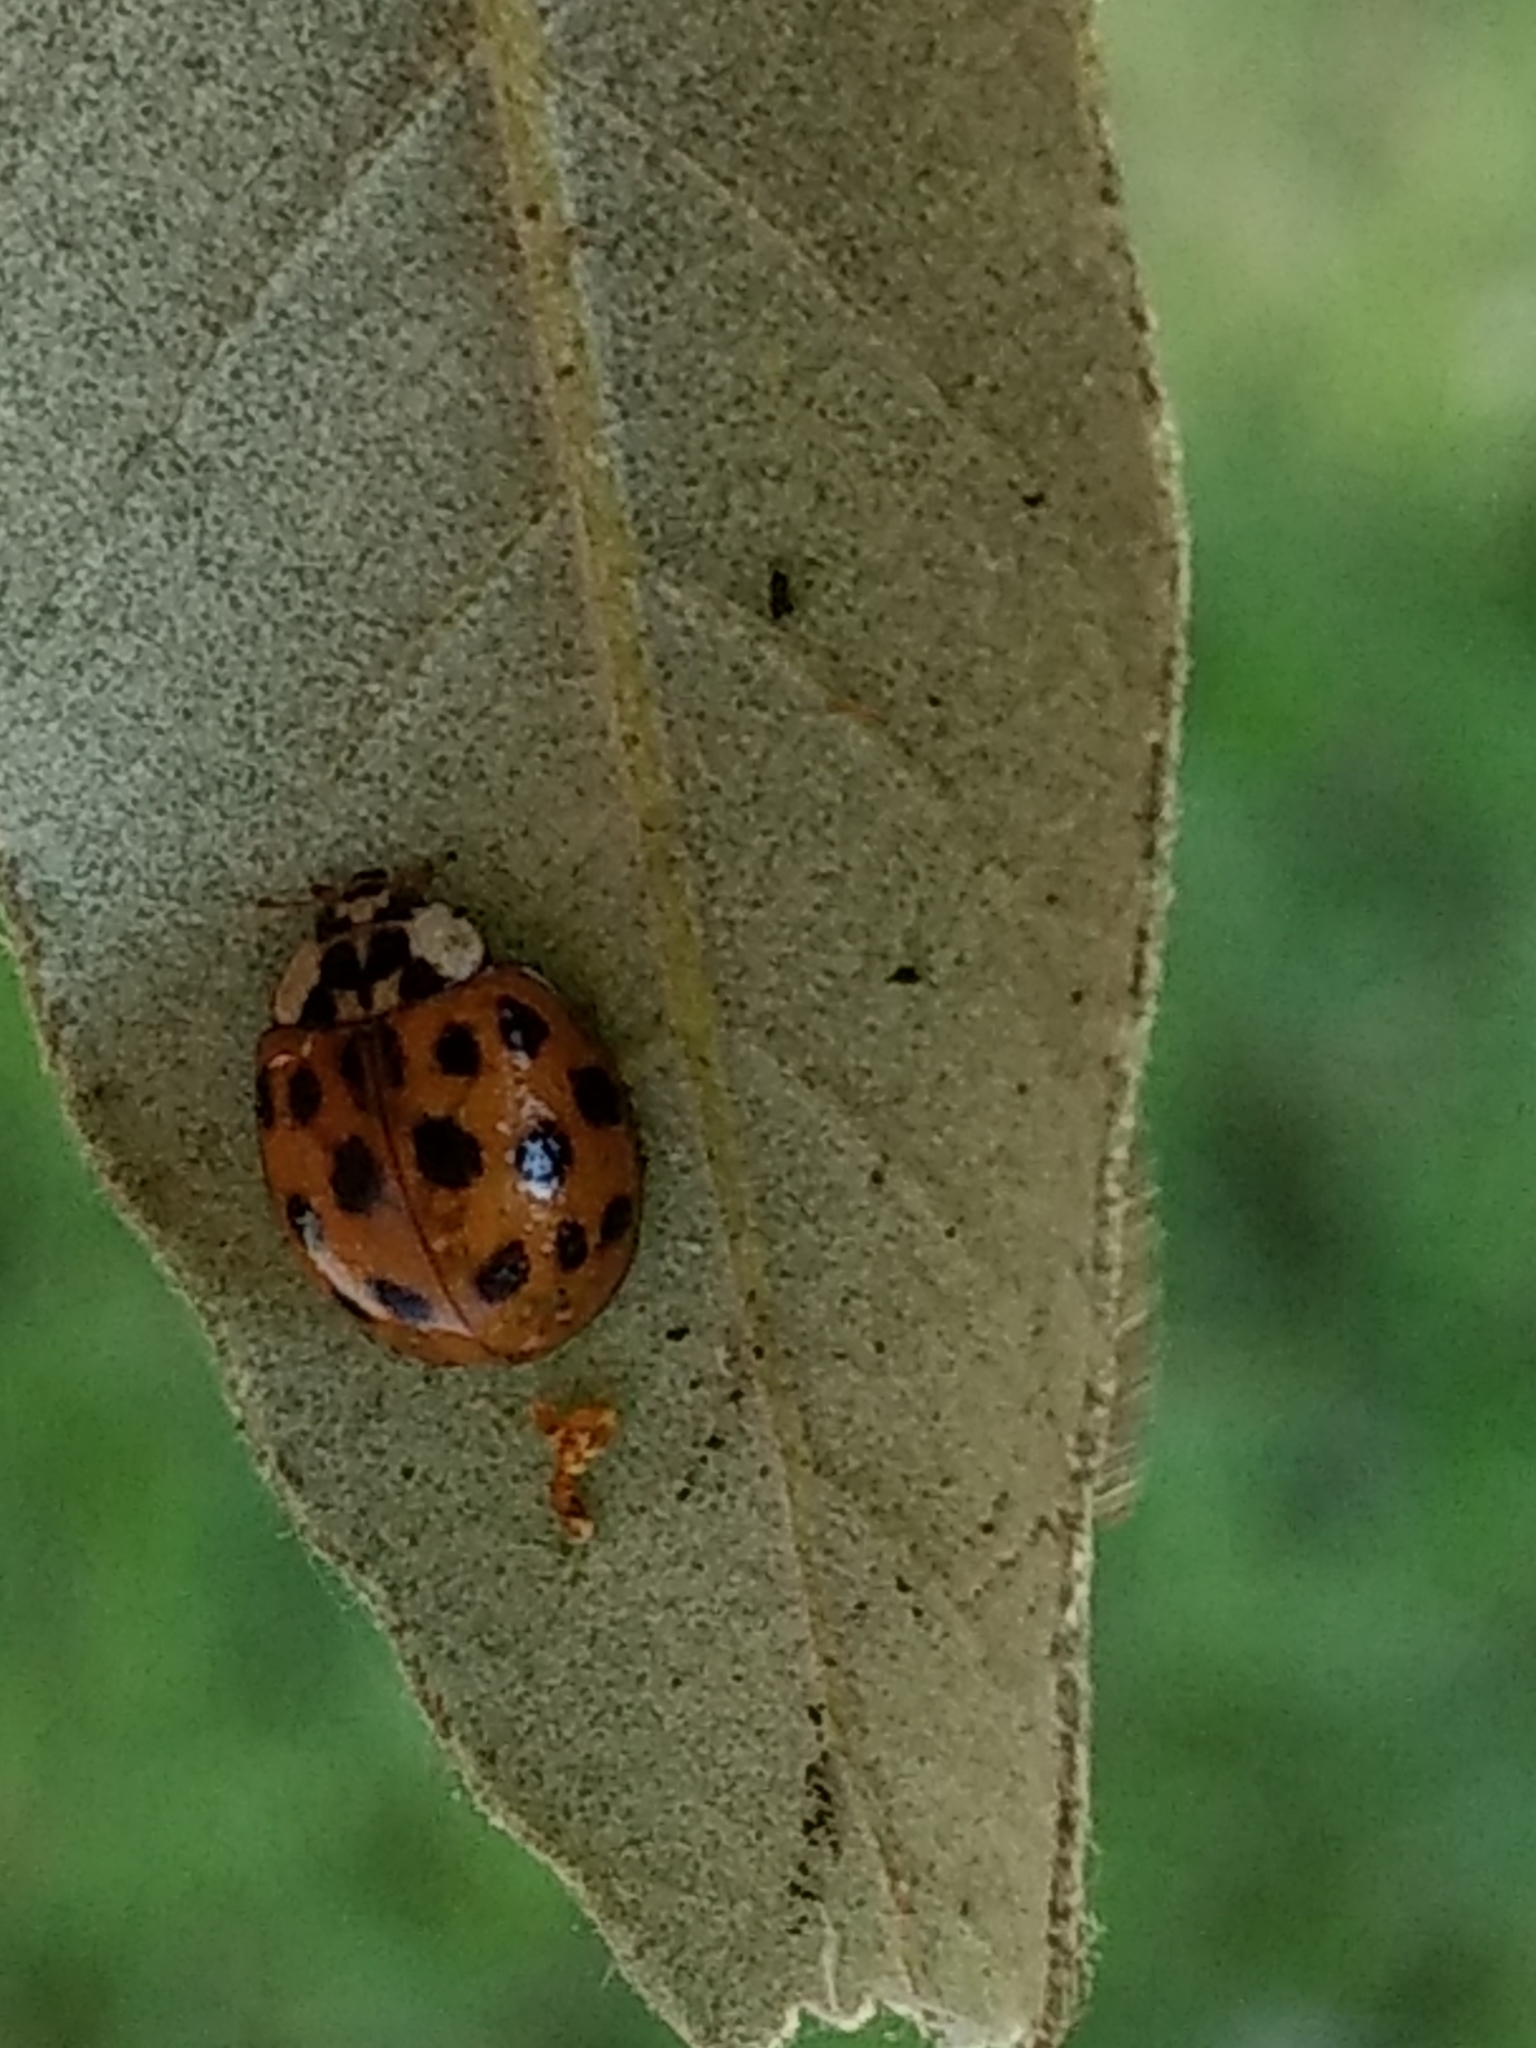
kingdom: Animalia
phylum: Arthropoda
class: Insecta
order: Coleoptera
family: Coccinellidae
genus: Harmonia
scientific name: Harmonia axyridis
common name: Harlequin ladybird
